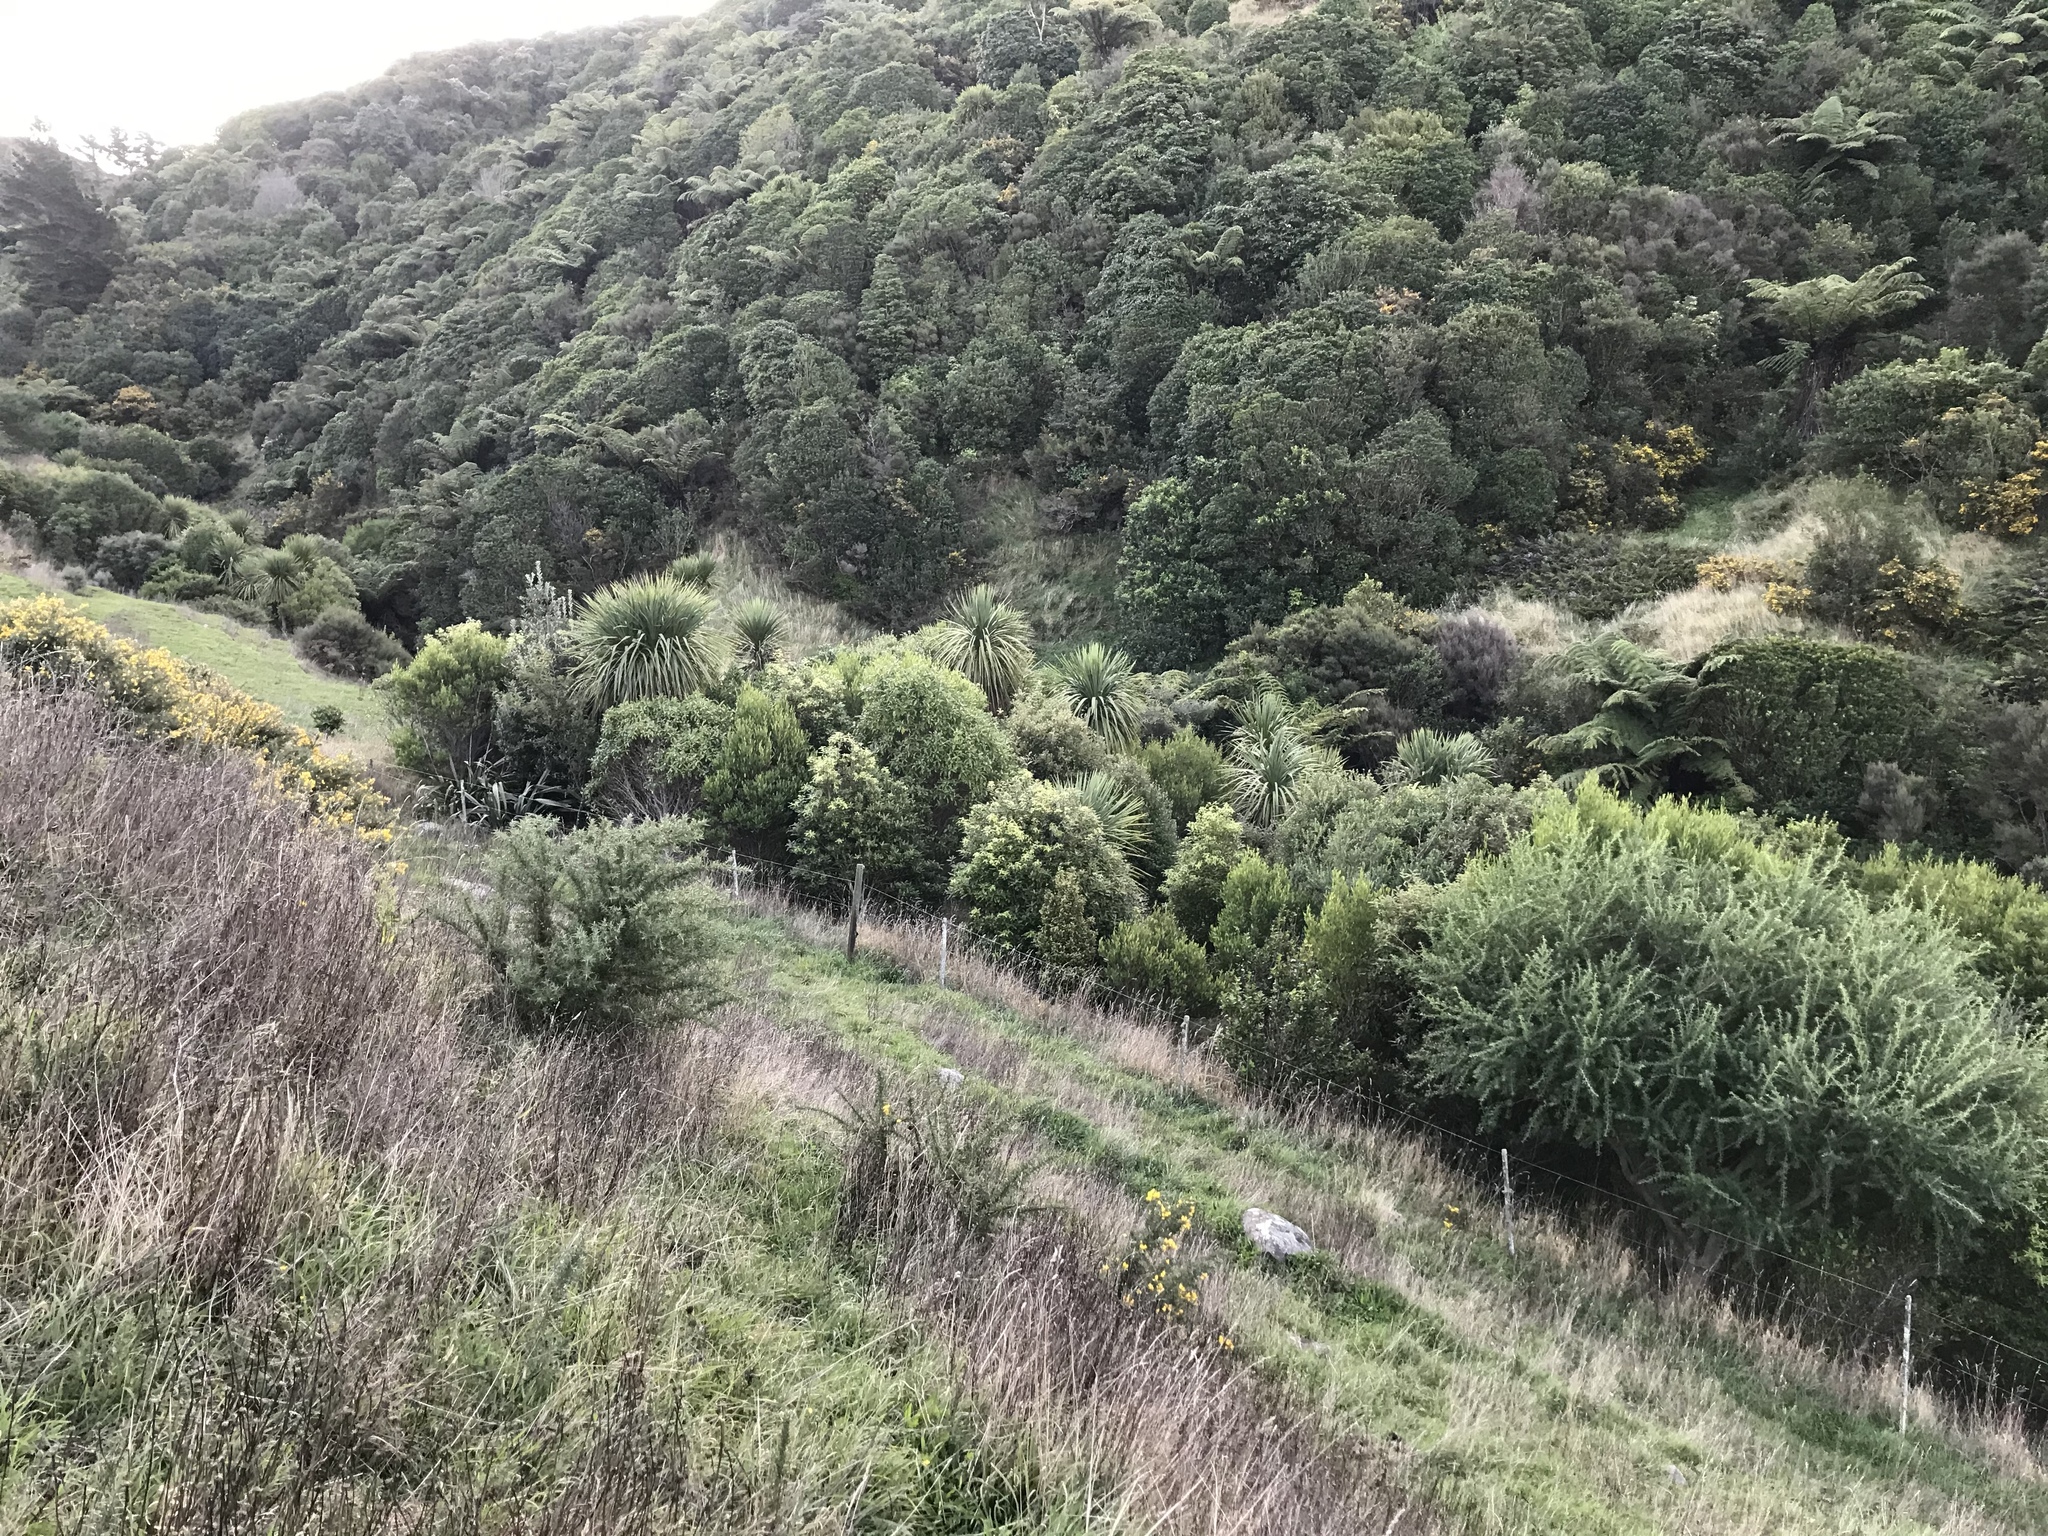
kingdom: Plantae
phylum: Tracheophyta
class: Magnoliopsida
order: Apiales
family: Pittosporaceae
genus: Pittosporum
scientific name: Pittosporum eugenioides
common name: Lemonwood
